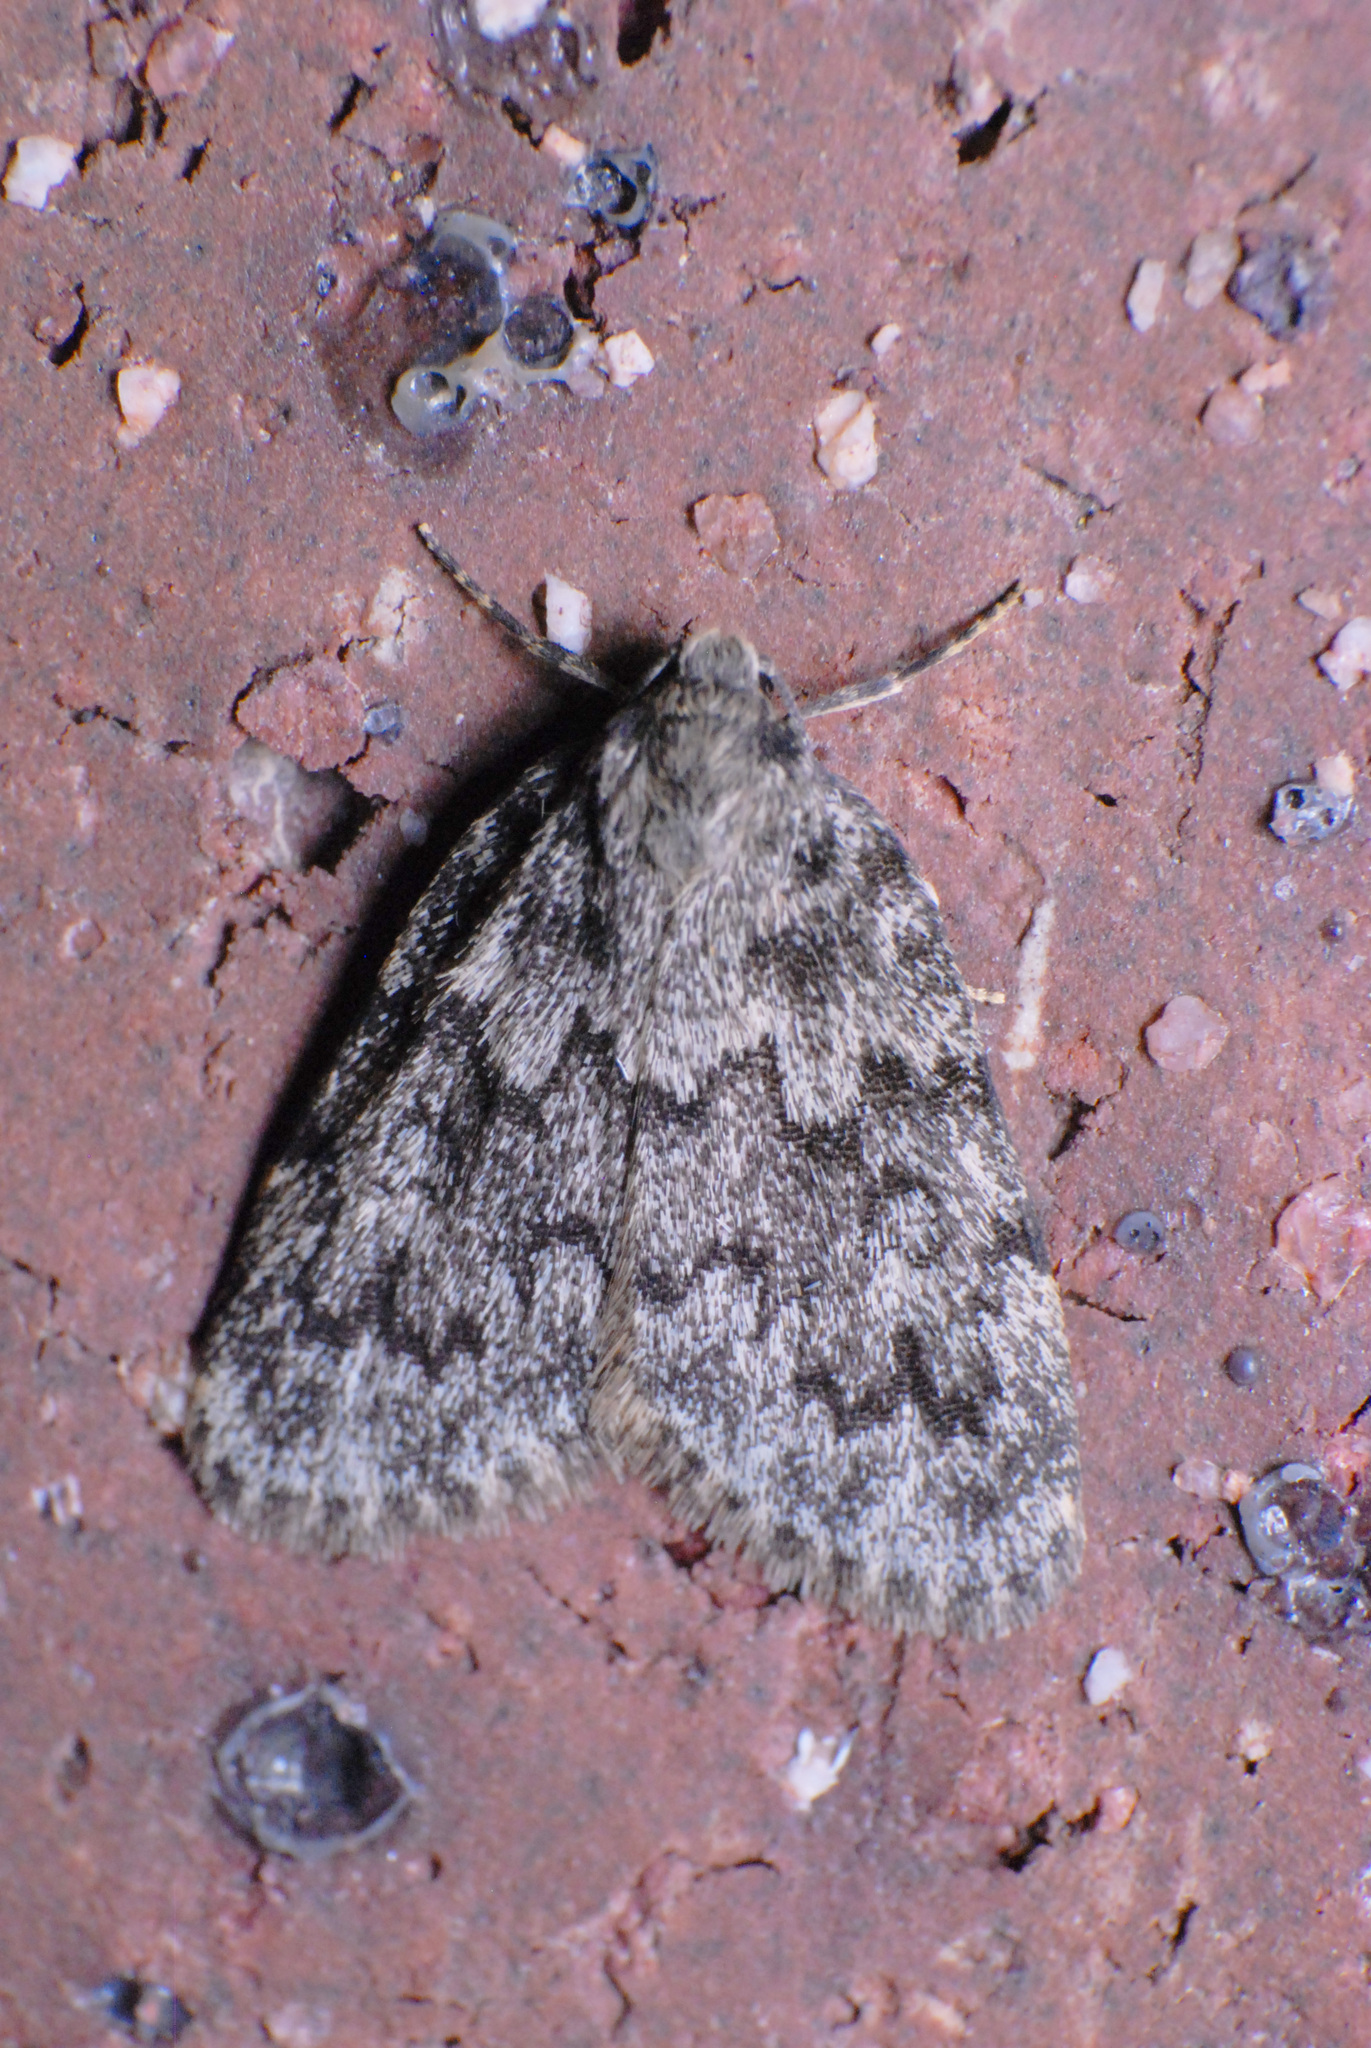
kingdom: Animalia
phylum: Arthropoda
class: Insecta
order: Lepidoptera
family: Erebidae
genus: Halone
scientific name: Halone consolatrix
